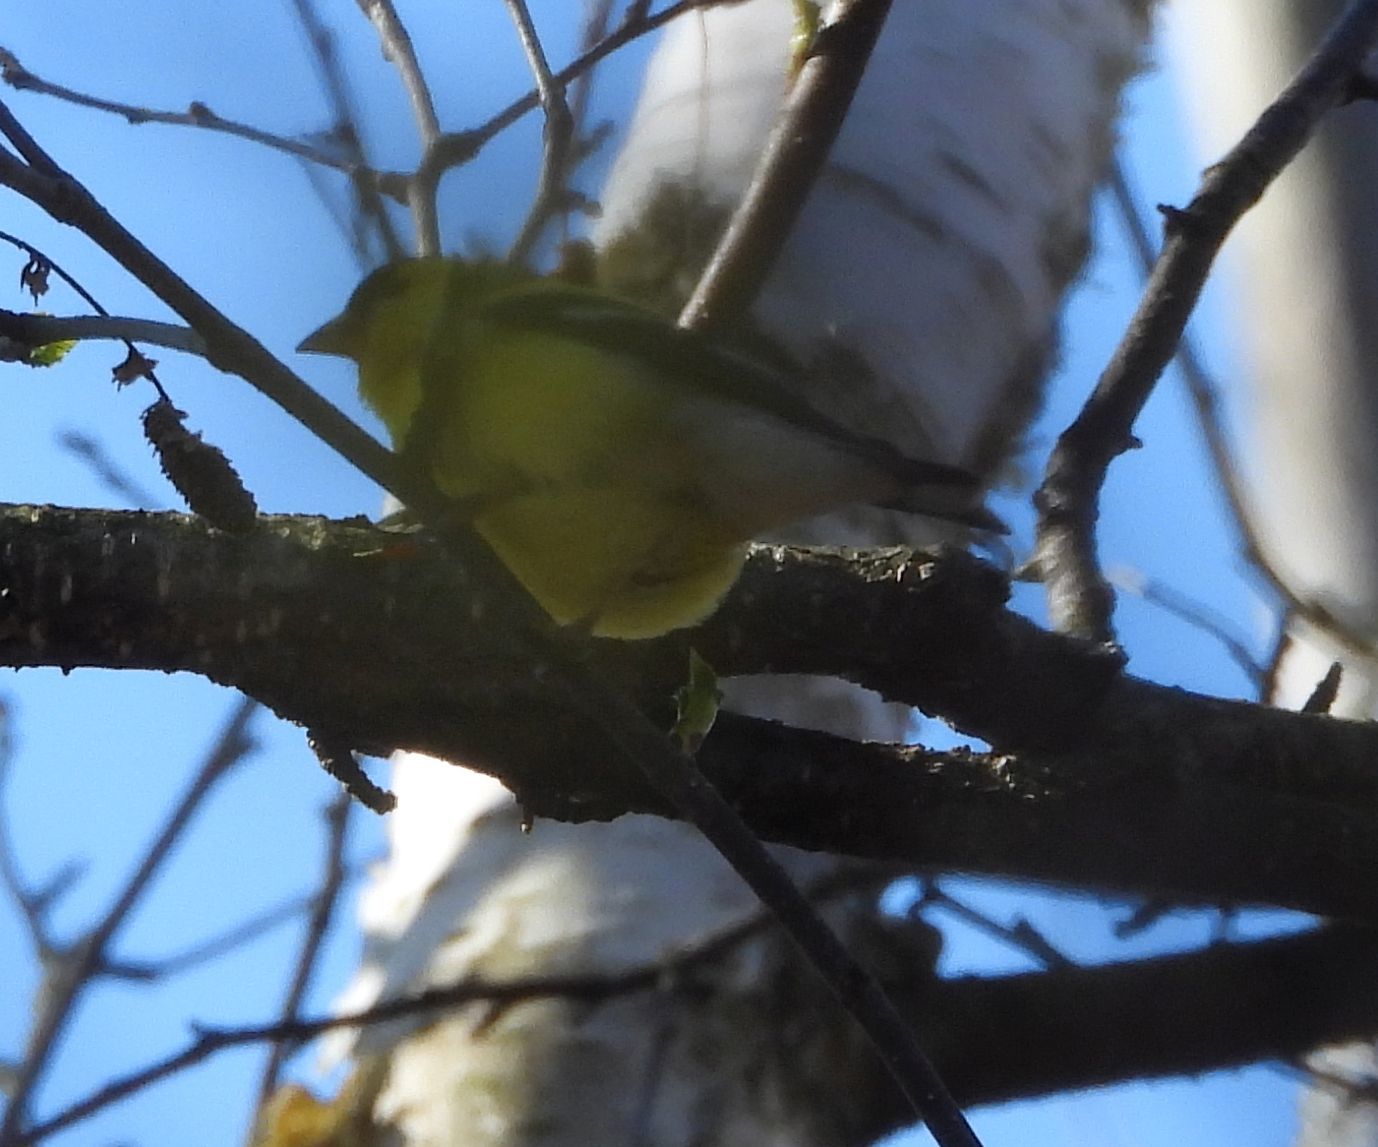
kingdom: Animalia
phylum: Chordata
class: Aves
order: Passeriformes
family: Fringillidae
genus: Spinus
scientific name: Spinus tristis
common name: American goldfinch
